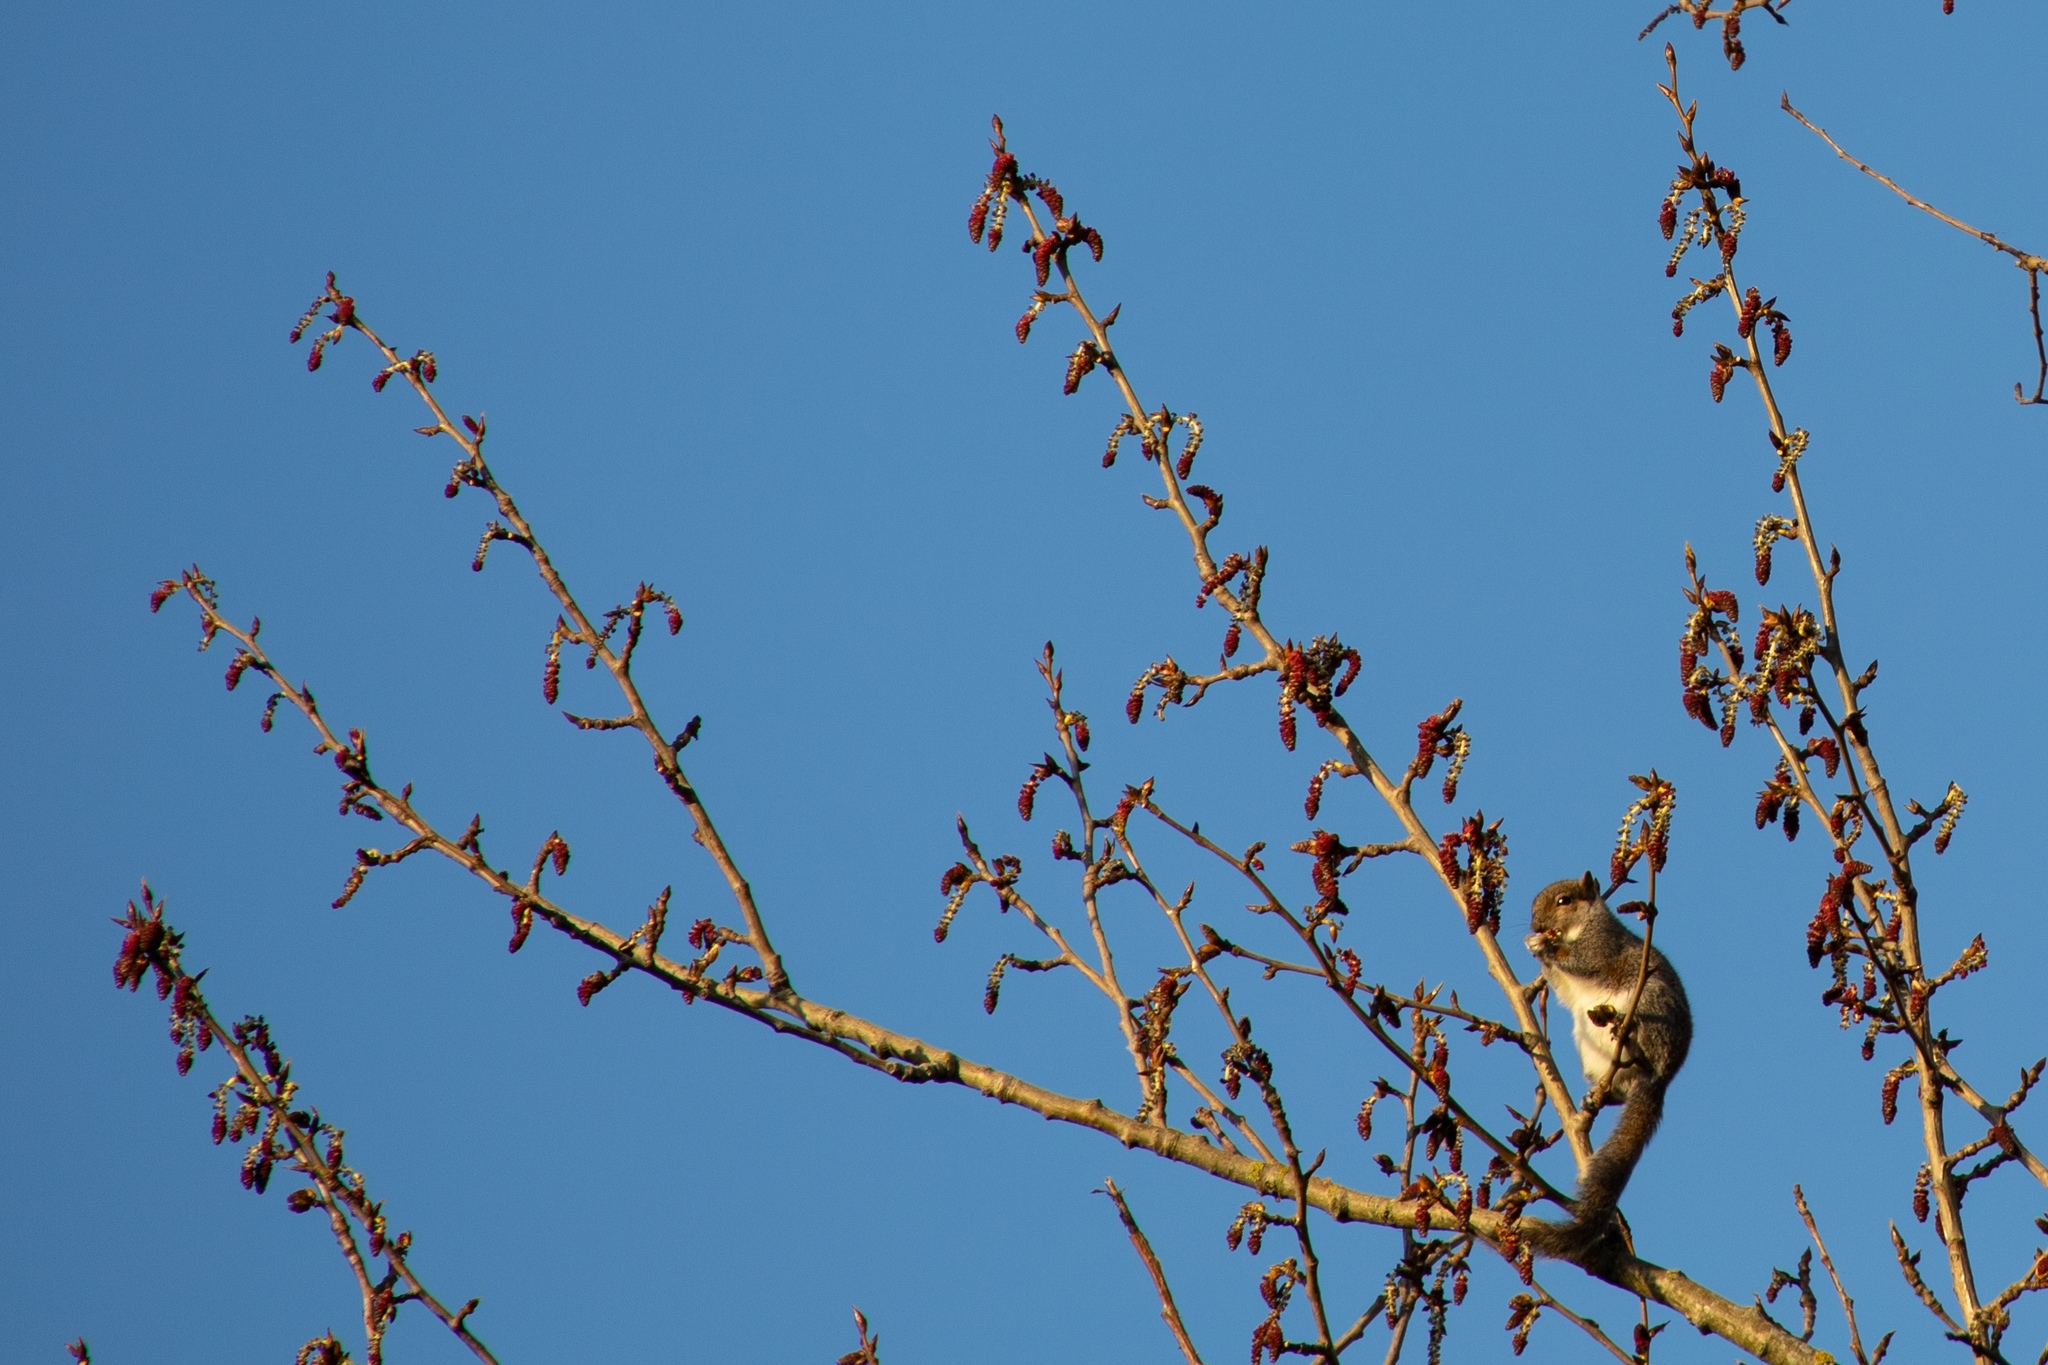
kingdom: Animalia
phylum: Chordata
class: Mammalia
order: Rodentia
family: Sciuridae
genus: Sciurus
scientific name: Sciurus carolinensis
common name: Eastern gray squirrel
